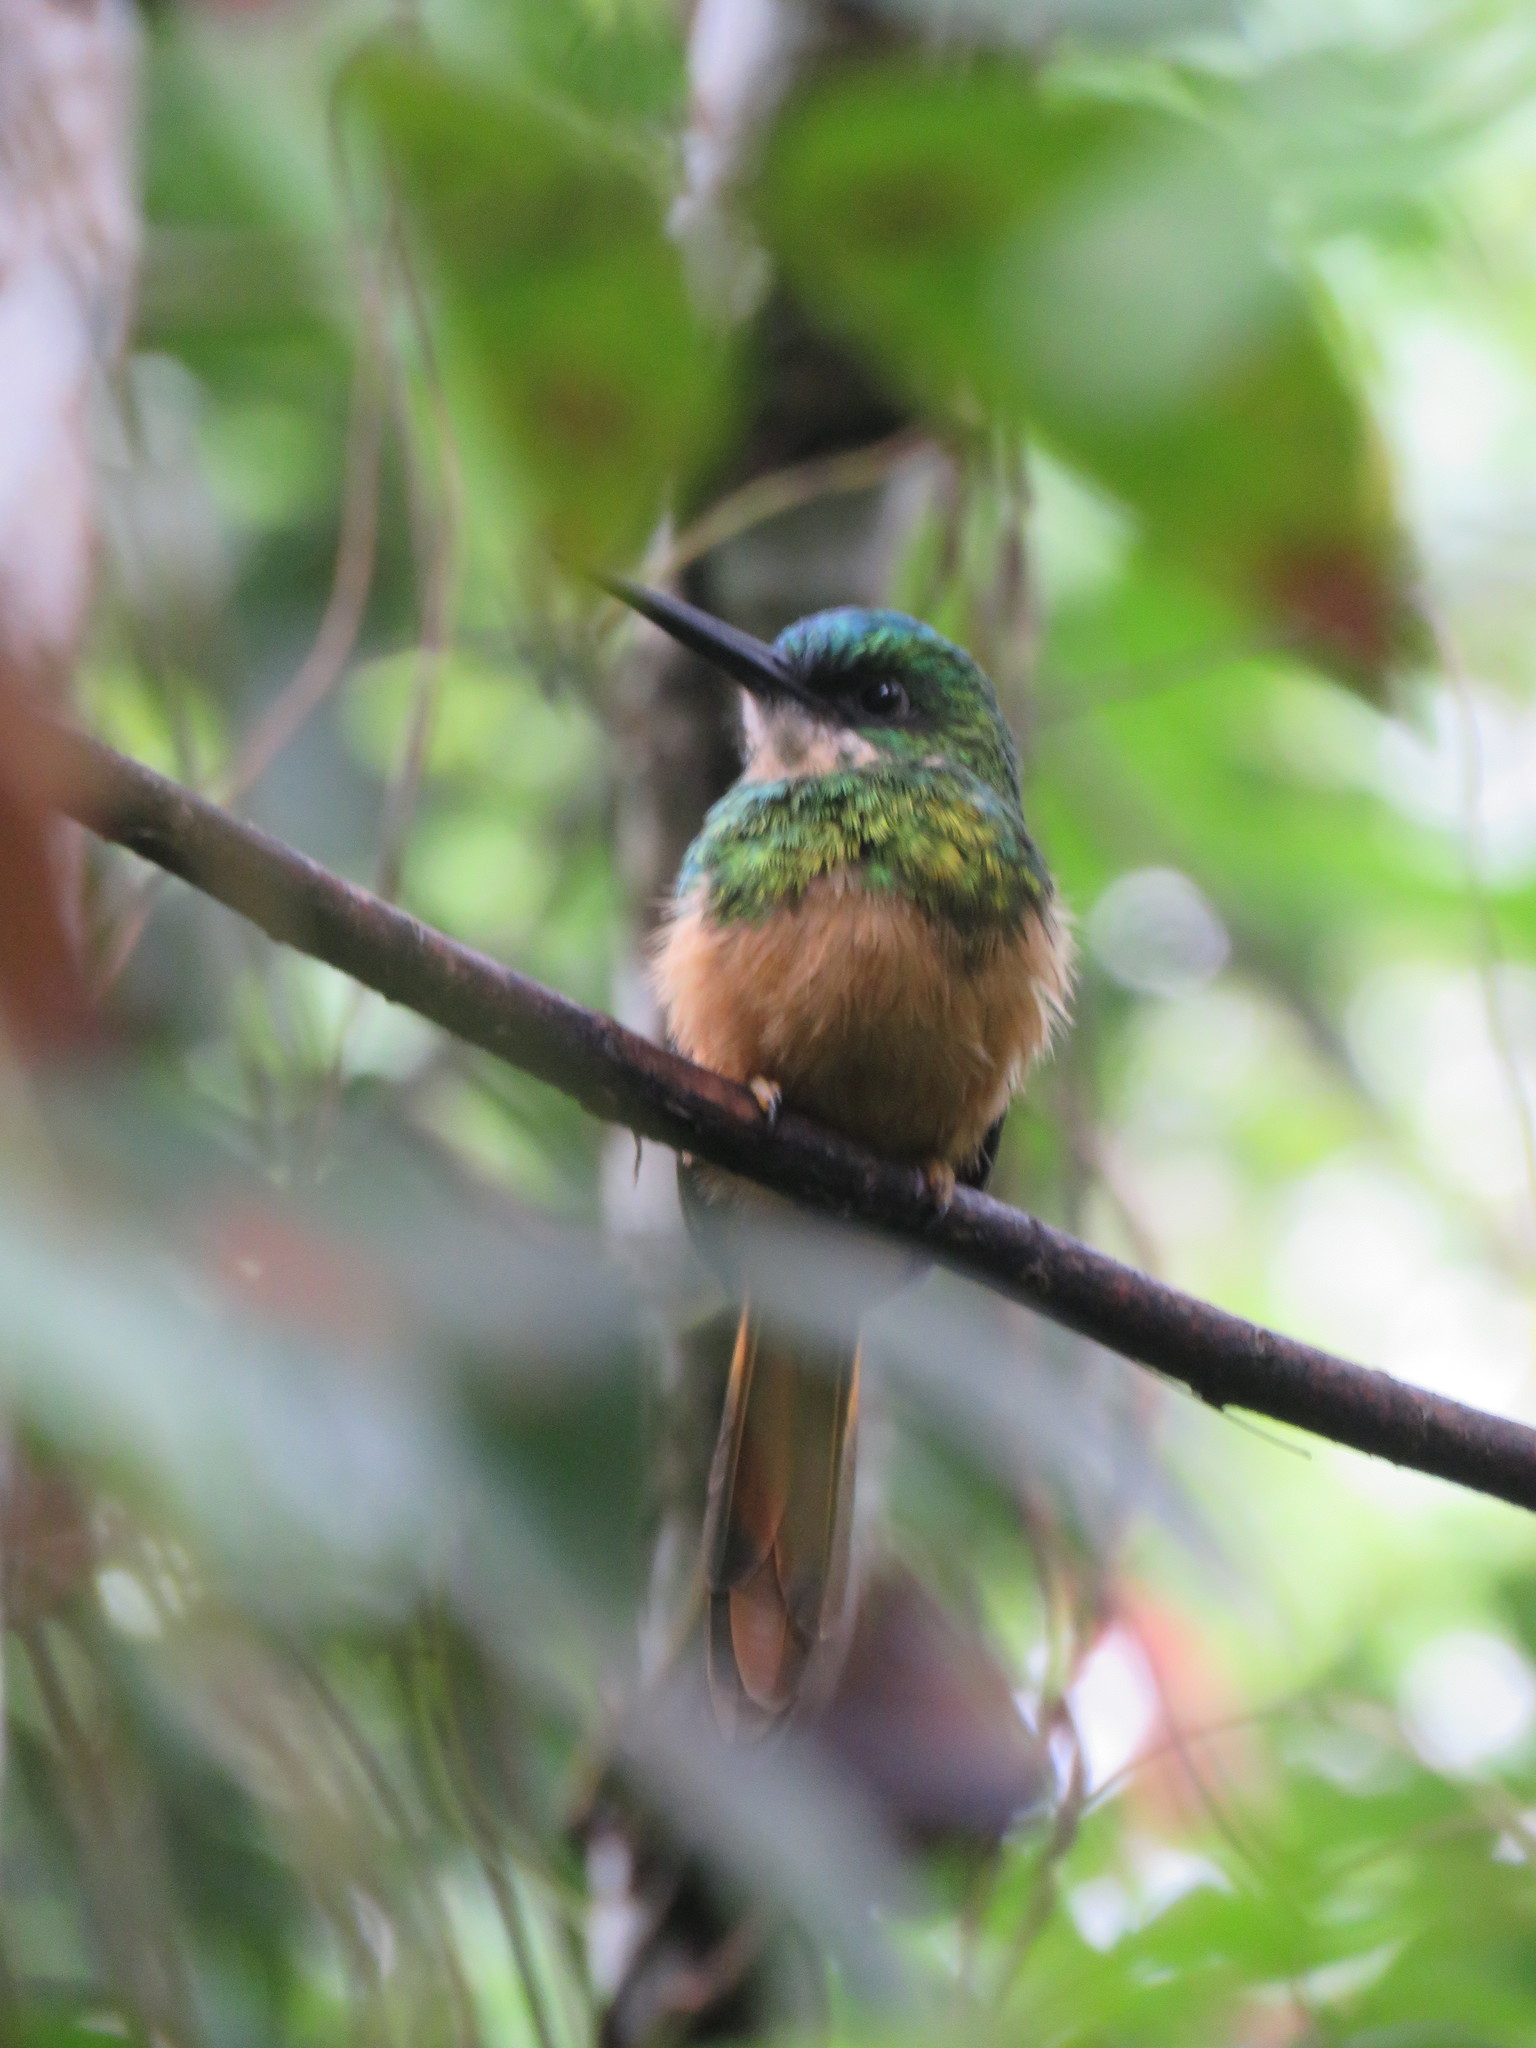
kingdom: Animalia
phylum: Chordata
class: Aves
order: Piciformes
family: Galbulidae
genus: Galbula
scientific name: Galbula ruficauda
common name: Rufous-tailed jacamar
